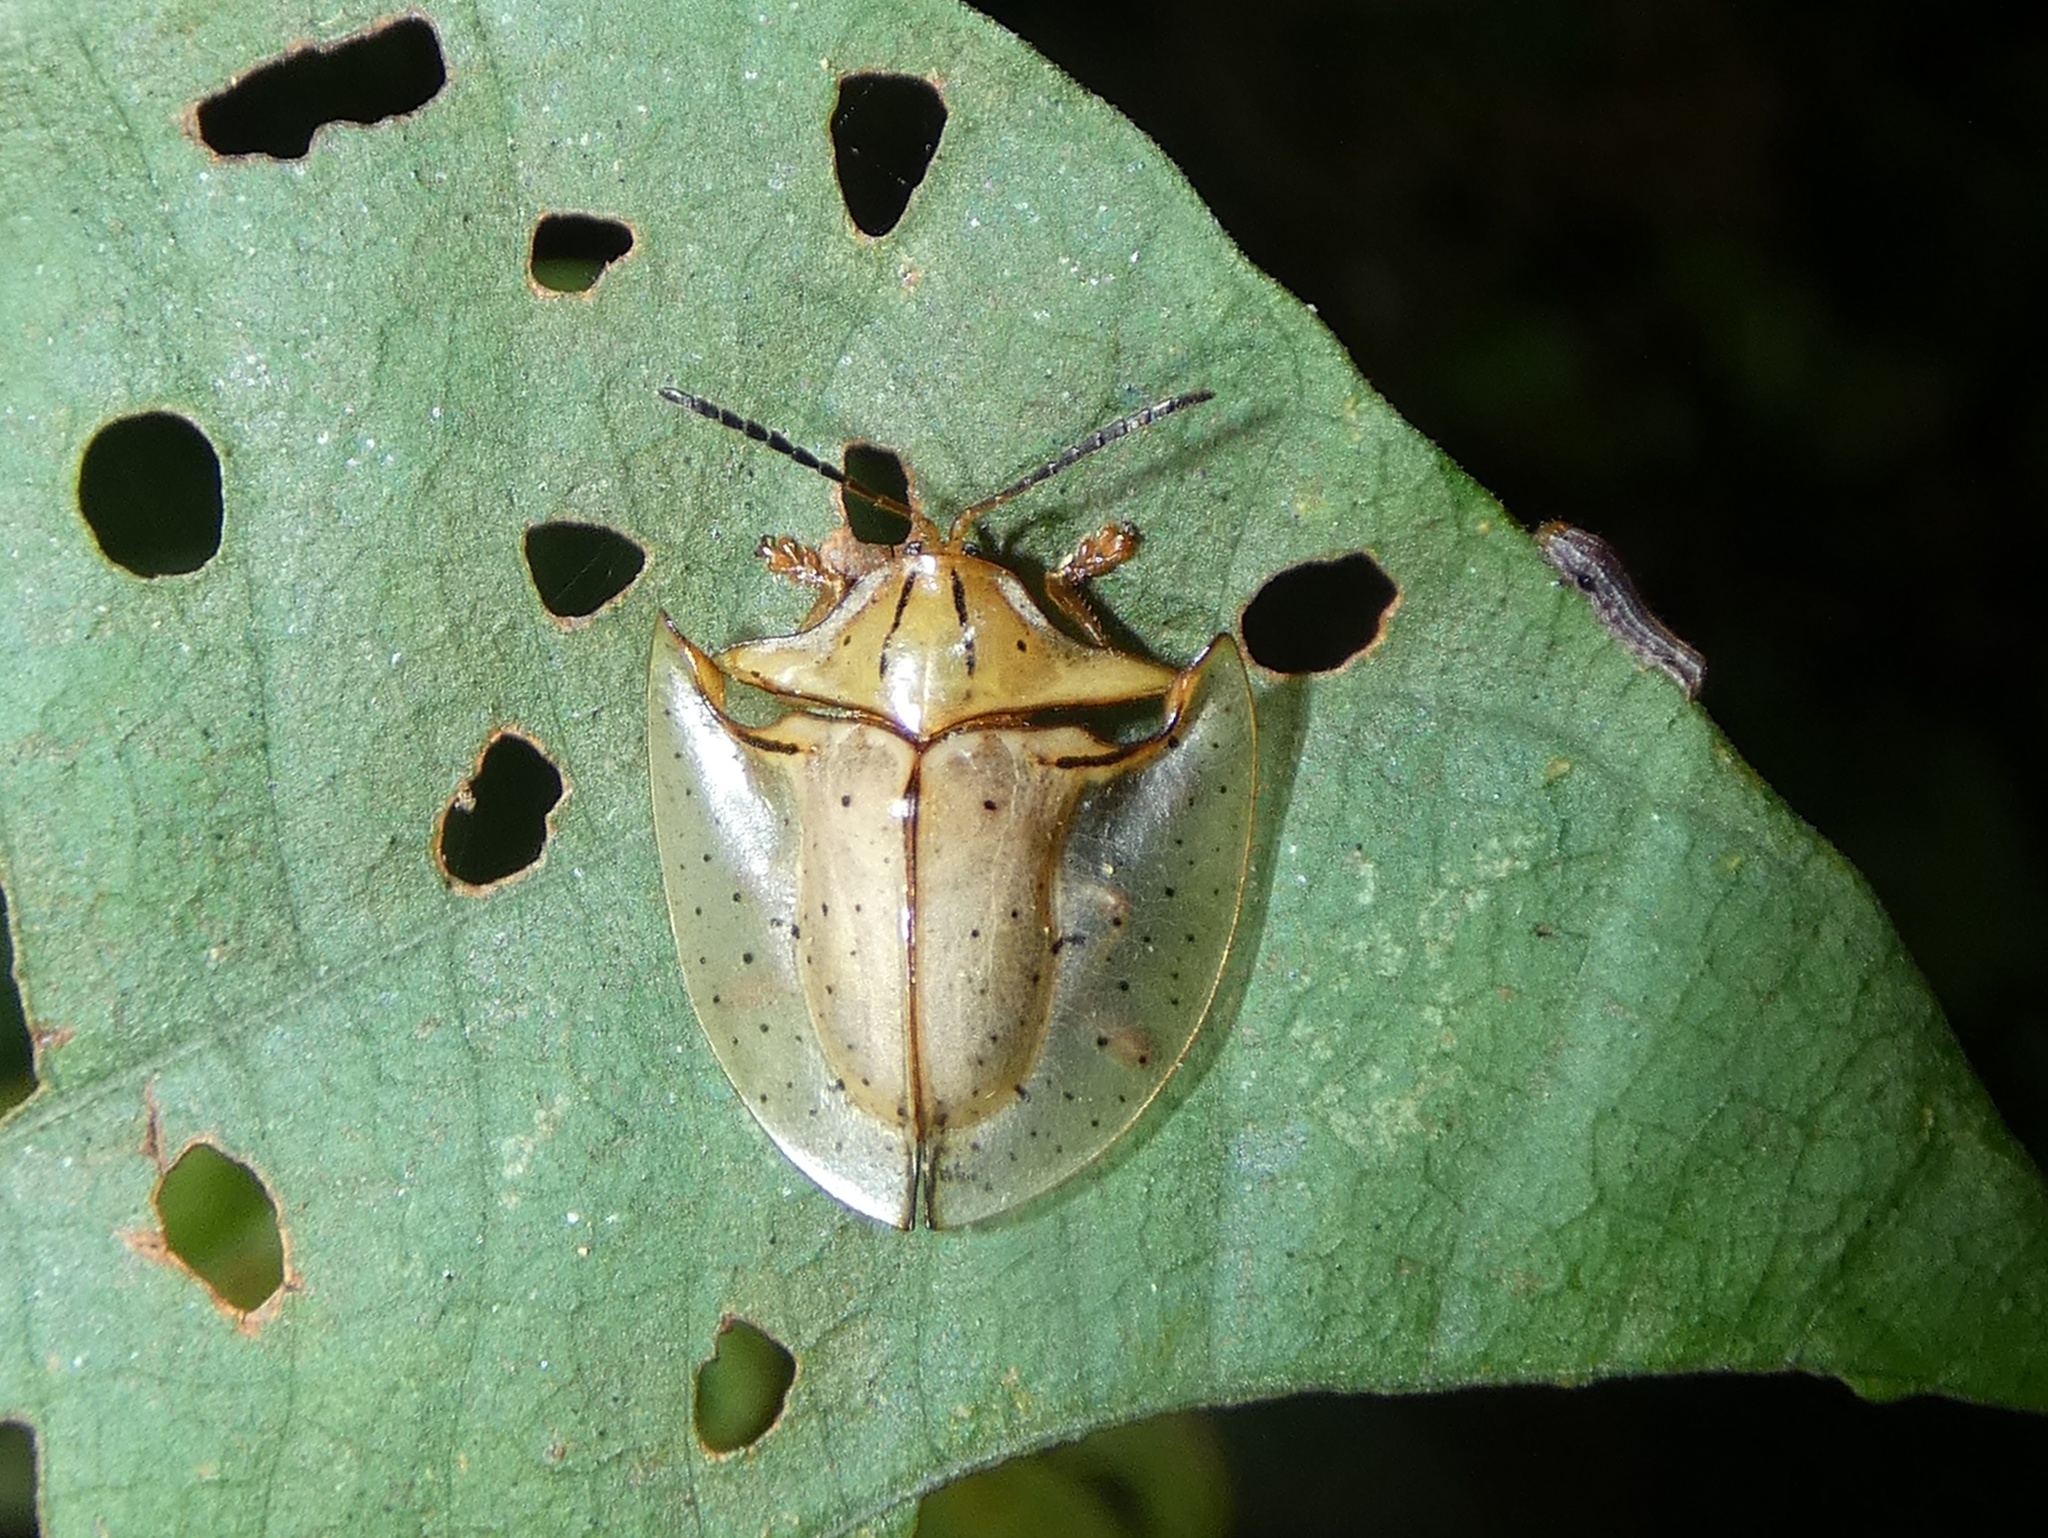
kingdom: Animalia
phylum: Arthropoda
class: Insecta
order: Coleoptera
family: Chrysomelidae
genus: Acromis
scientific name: Acromis sparsa
